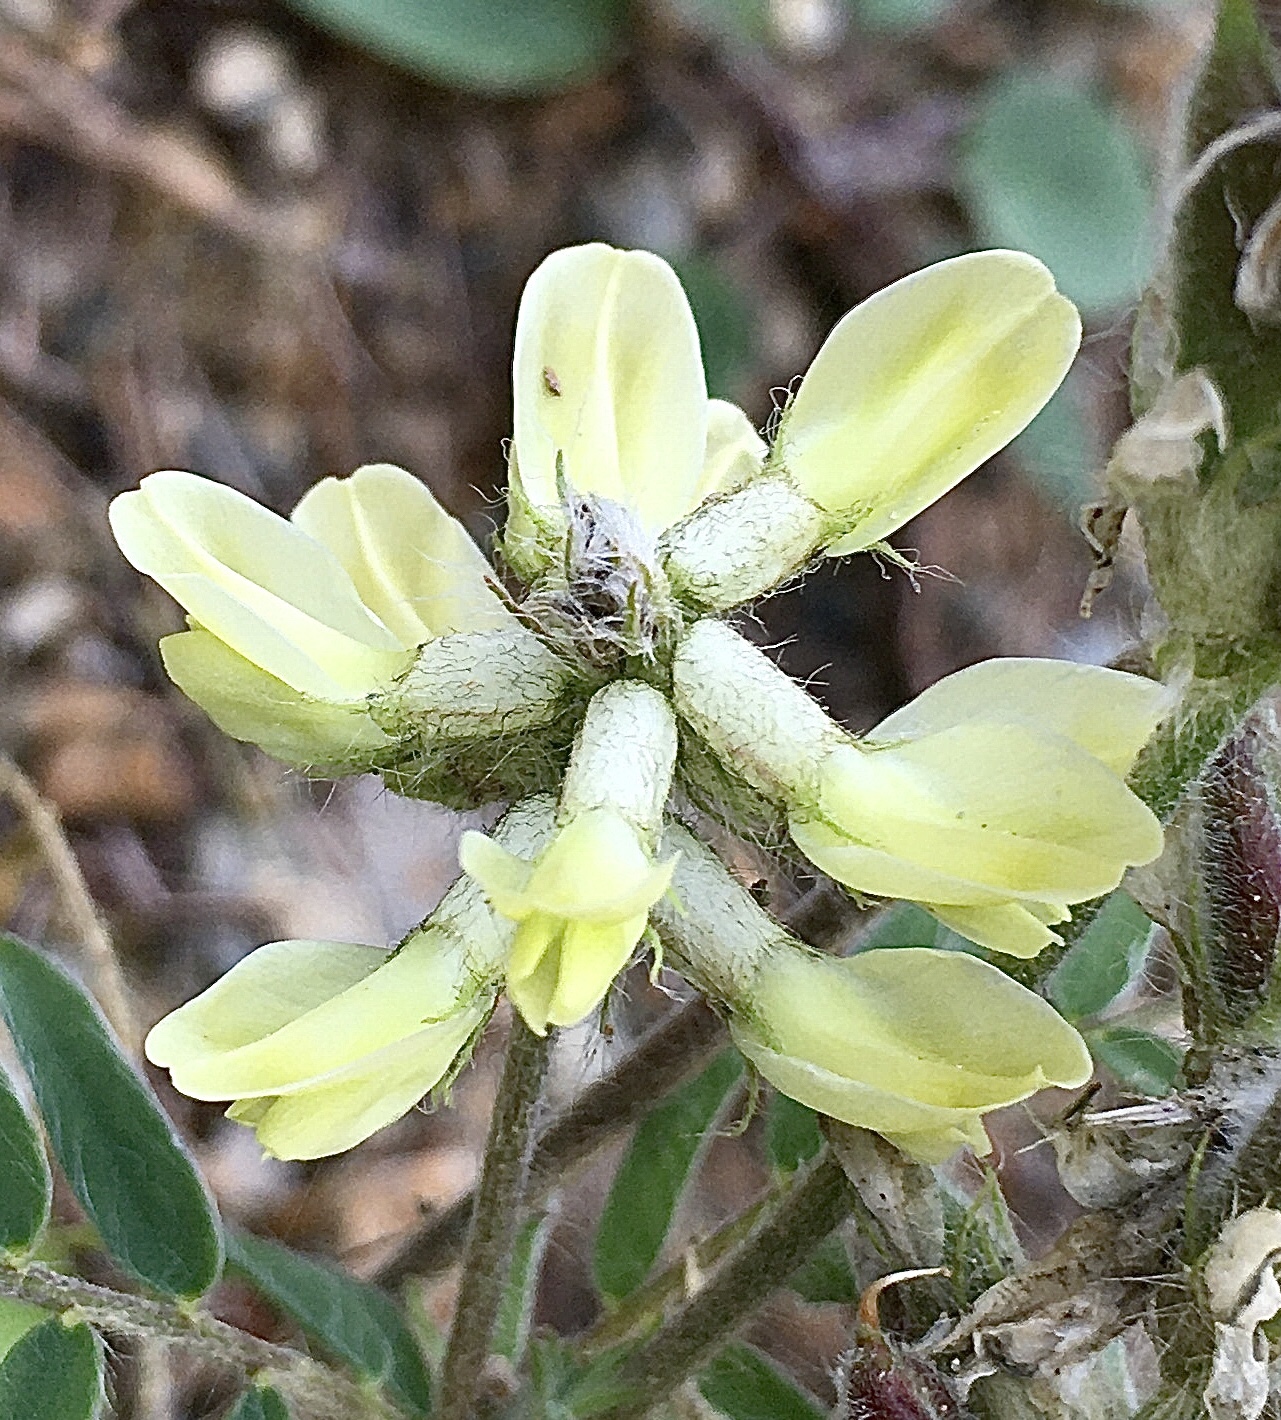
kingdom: Plantae
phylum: Tracheophyta
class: Magnoliopsida
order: Fabales
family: Fabaceae
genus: Oxytropis
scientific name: Oxytropis pilosa
